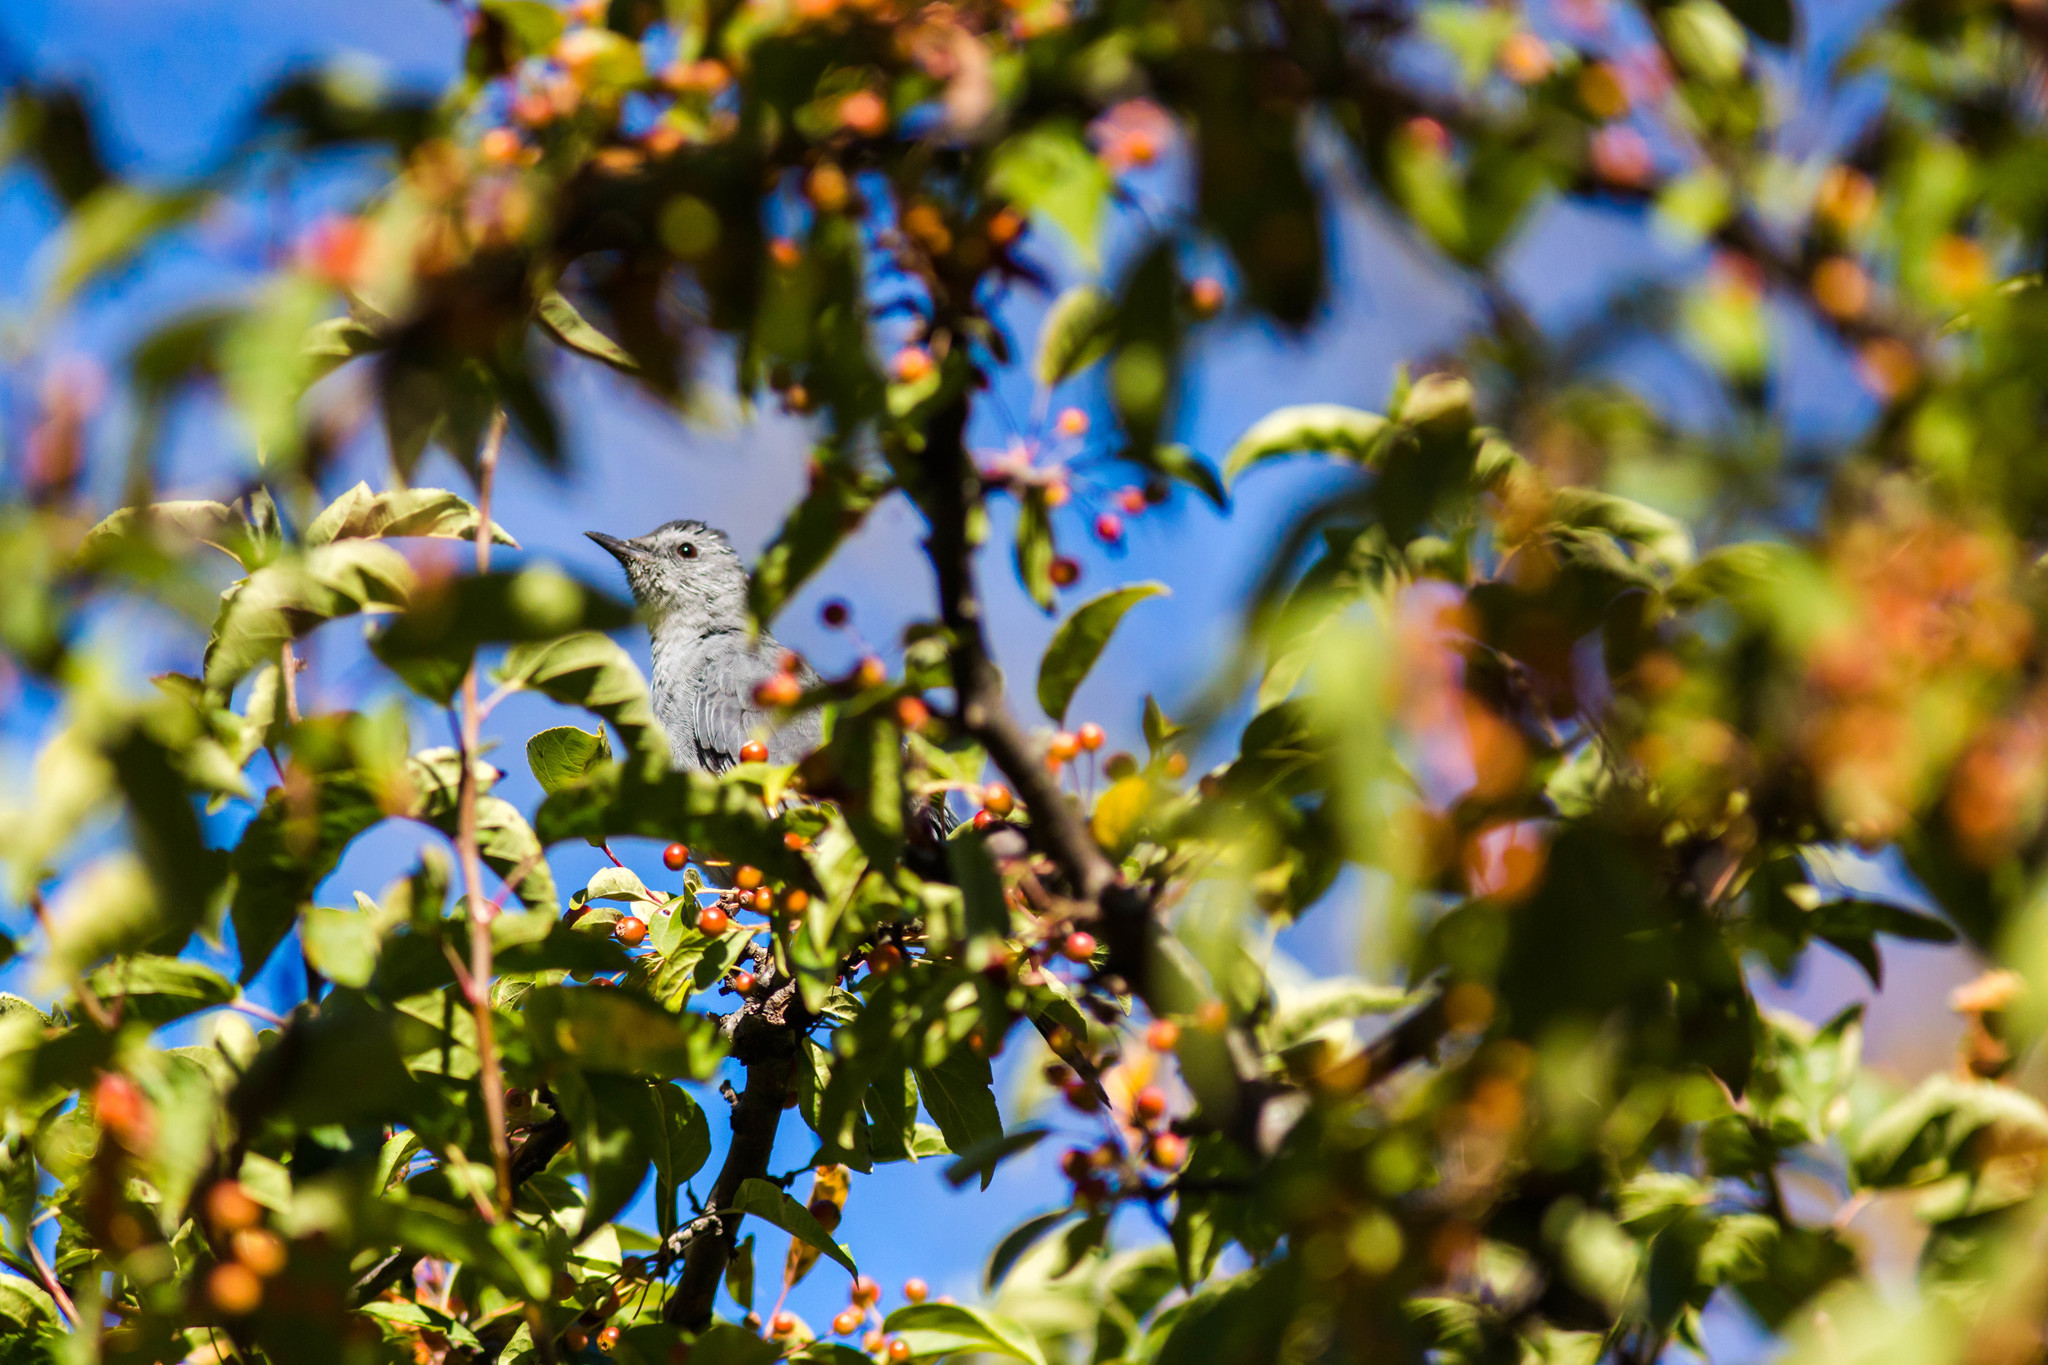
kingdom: Animalia
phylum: Chordata
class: Aves
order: Passeriformes
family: Mimidae
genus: Dumetella
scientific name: Dumetella carolinensis
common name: Gray catbird
